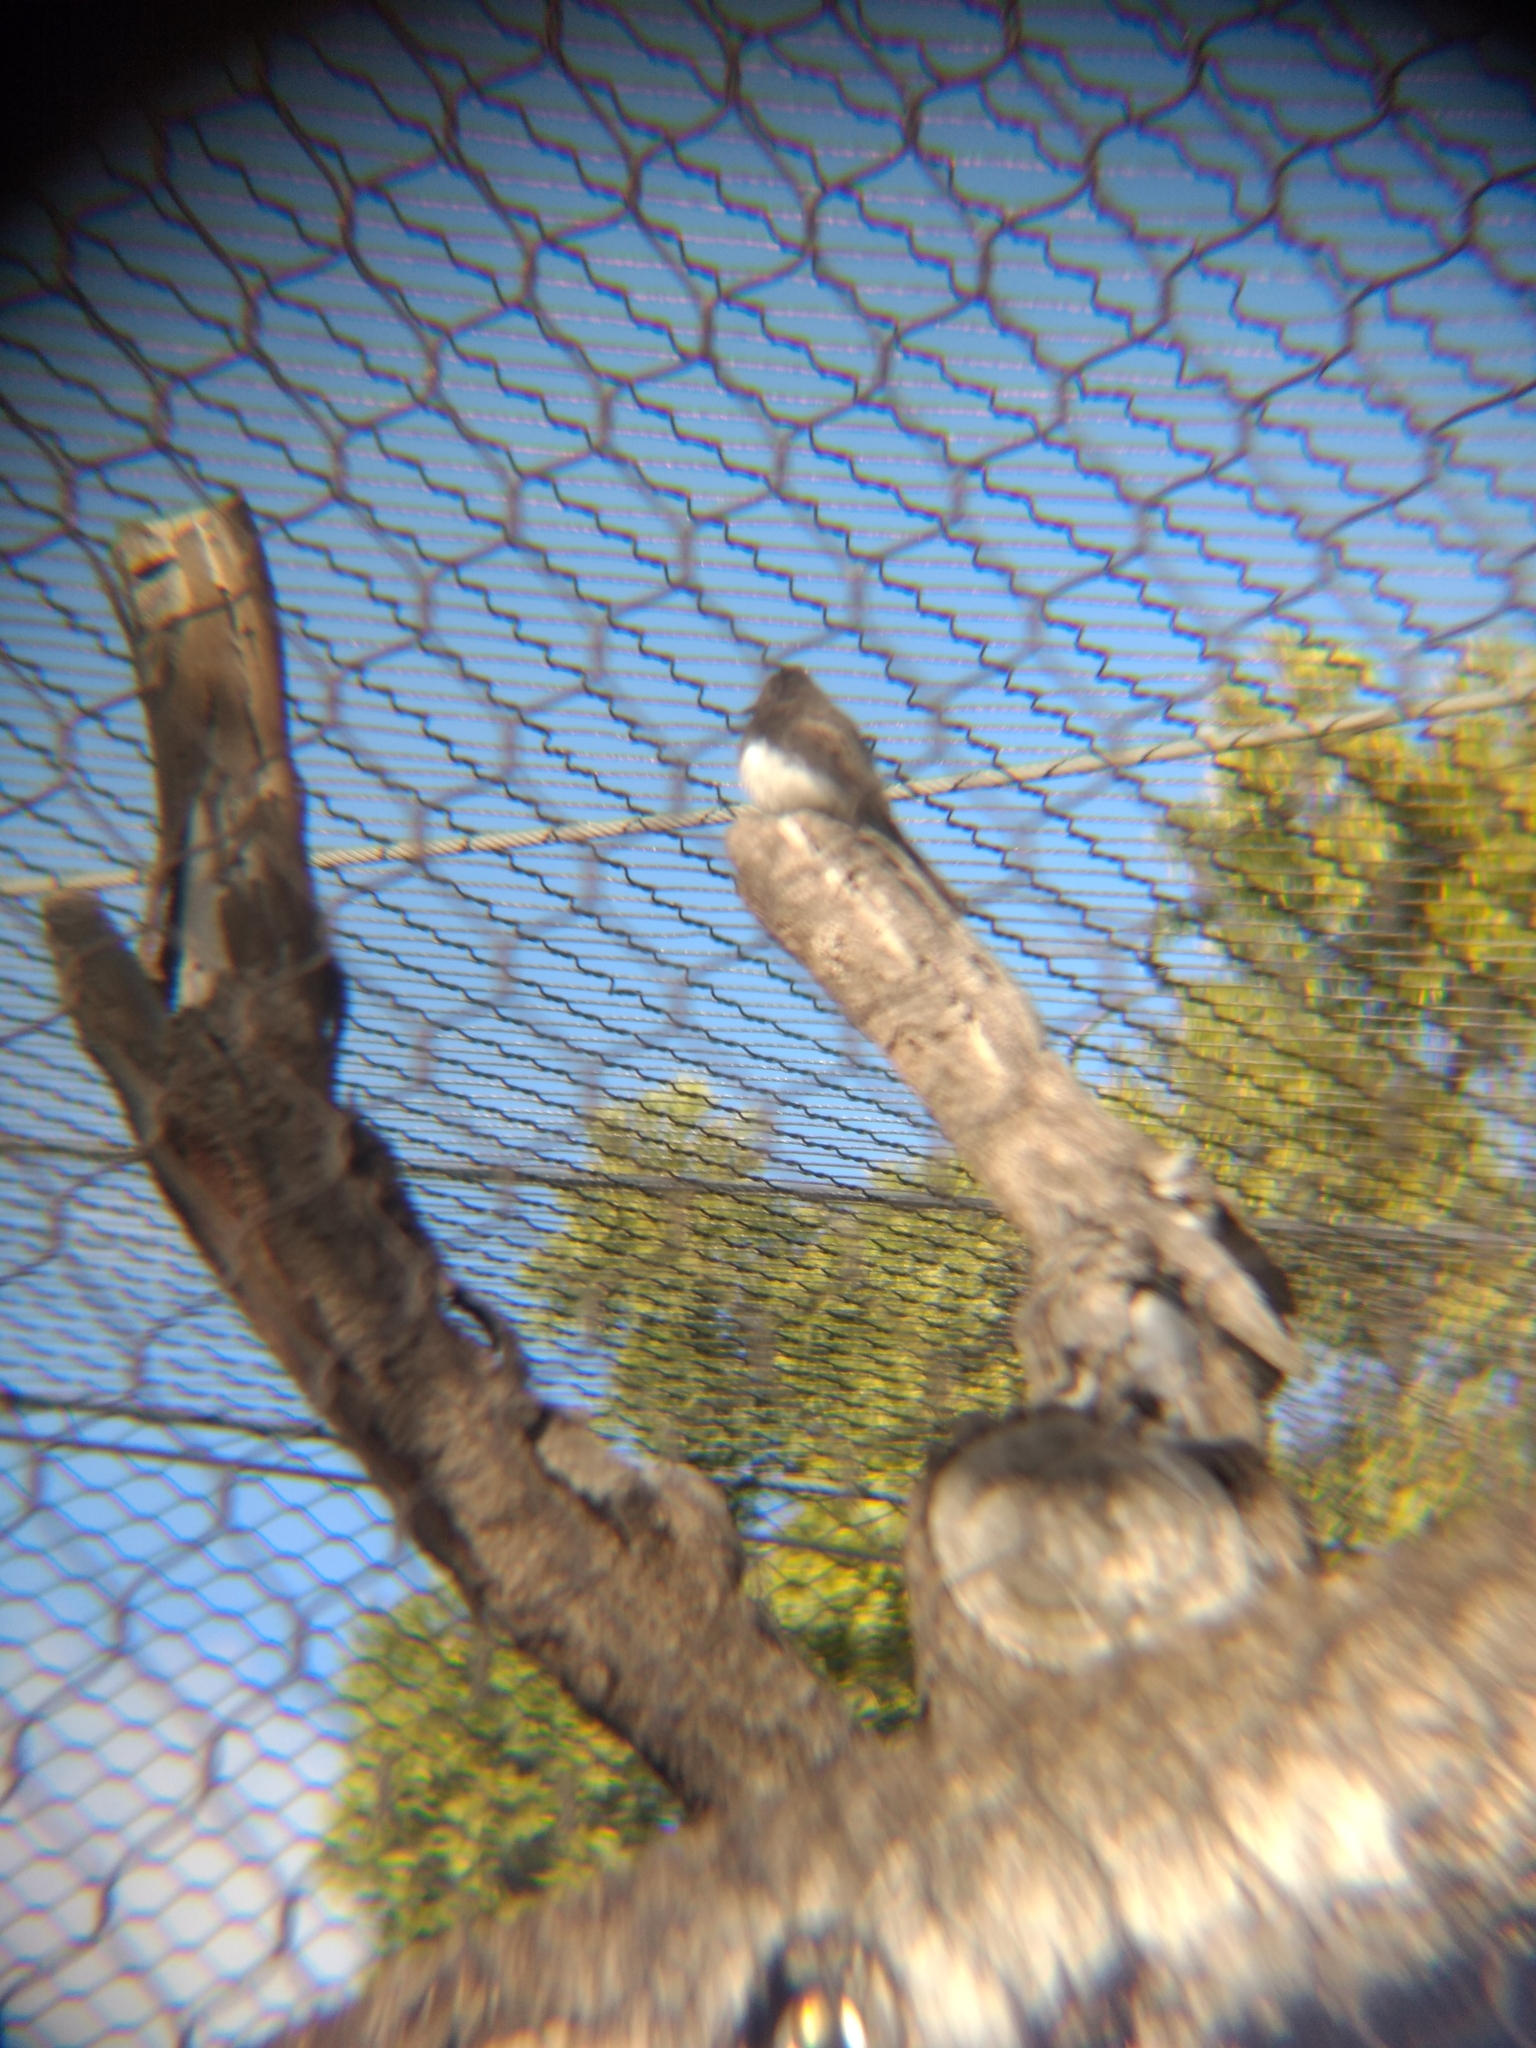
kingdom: Animalia
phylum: Chordata
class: Aves
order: Passeriformes
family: Tyrannidae
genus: Sayornis
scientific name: Sayornis nigricans
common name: Black phoebe
